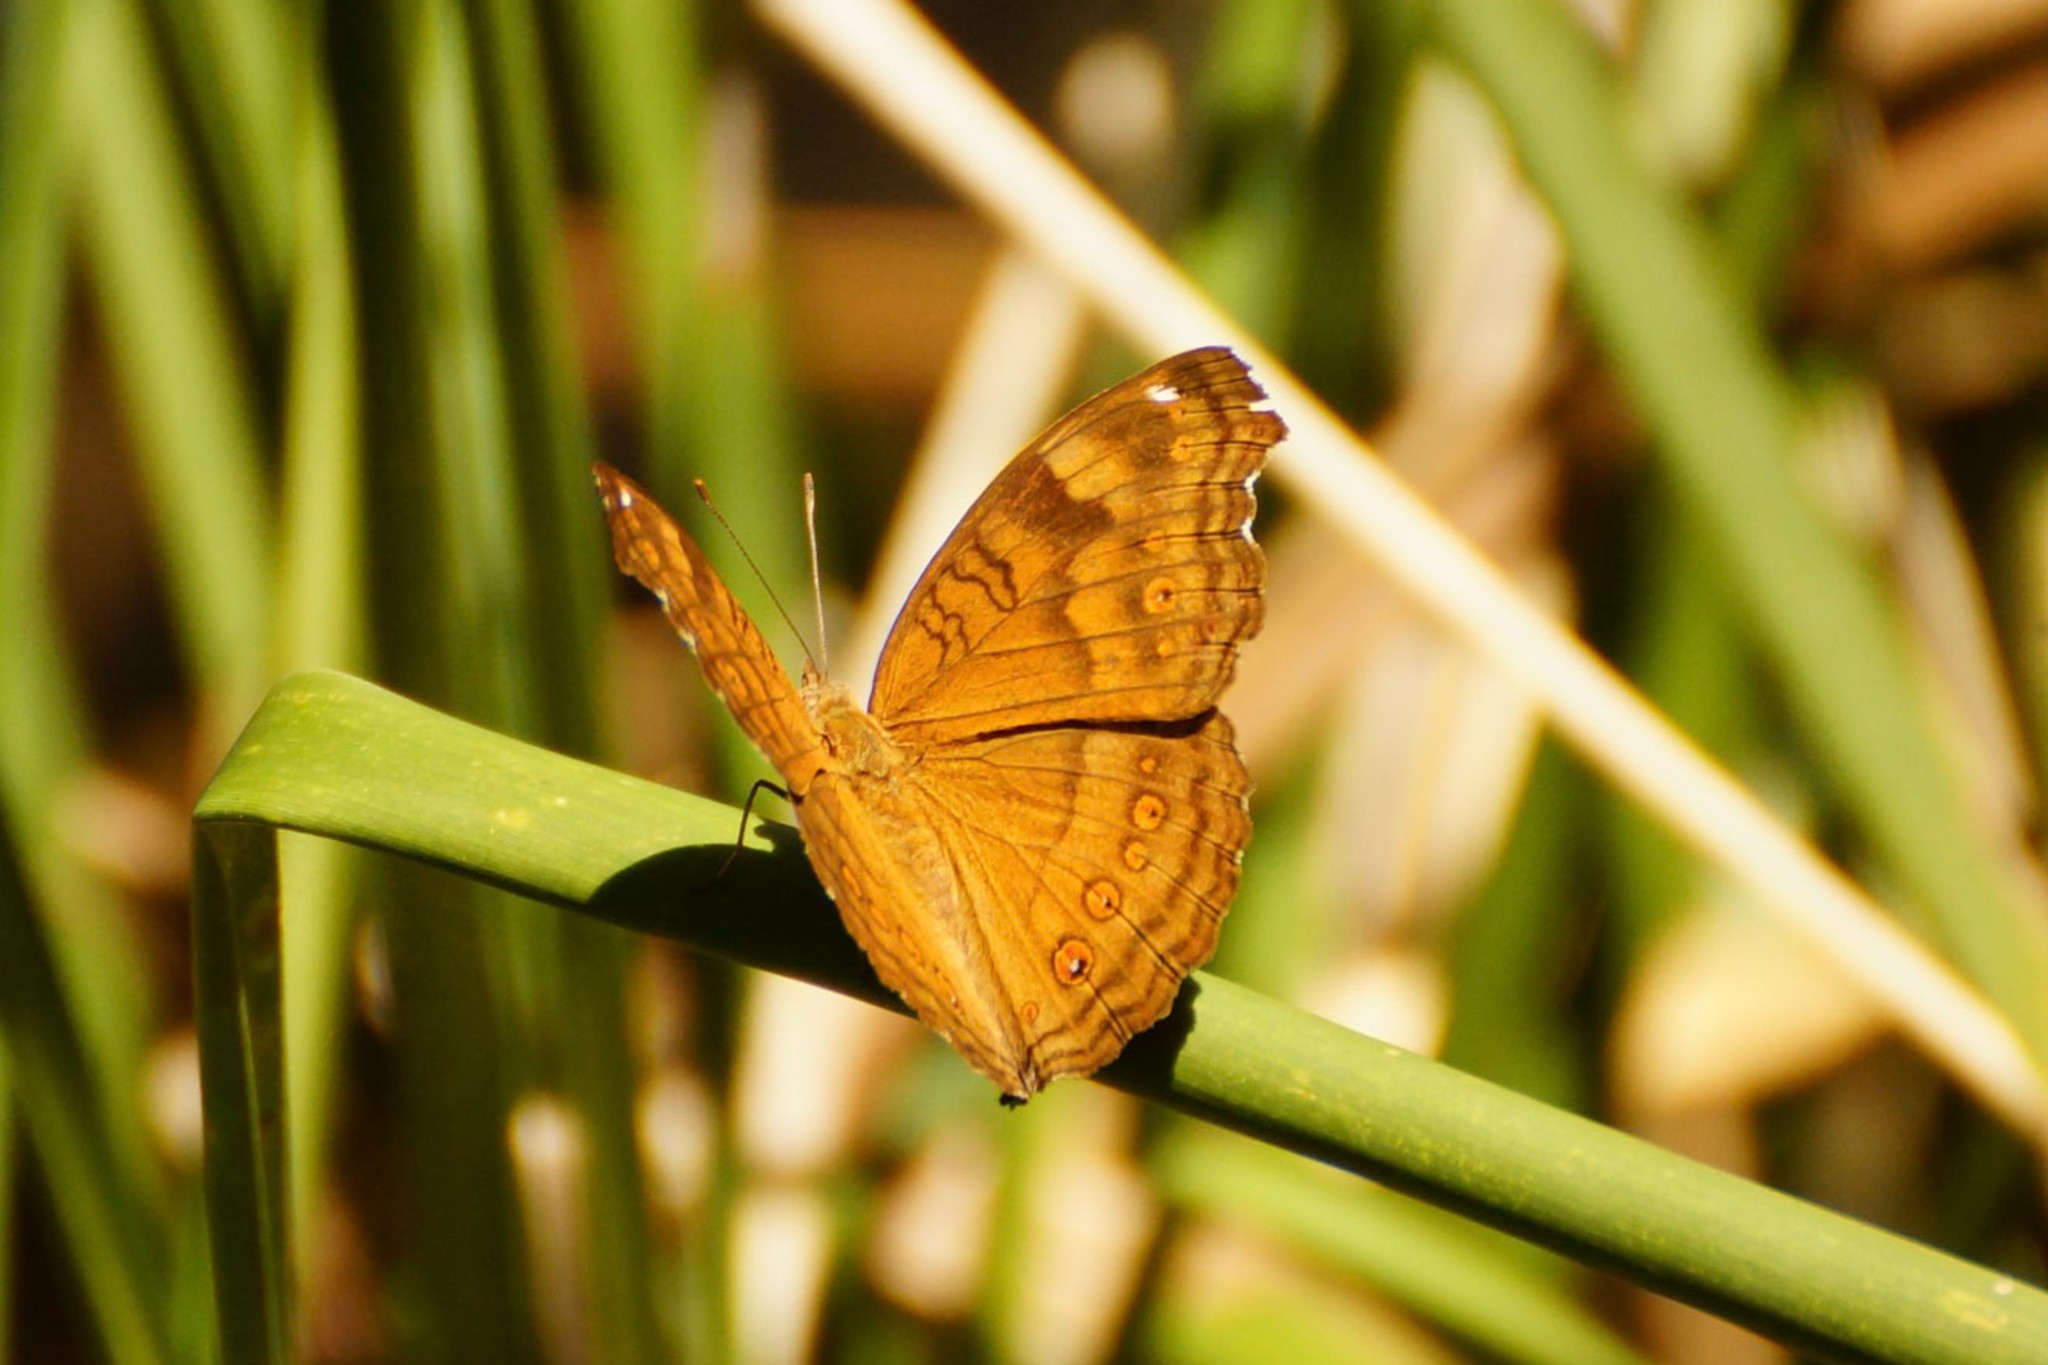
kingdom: Animalia
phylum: Arthropoda
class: Insecta
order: Lepidoptera
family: Nymphalidae
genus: Junonia
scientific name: Junonia hedonia
